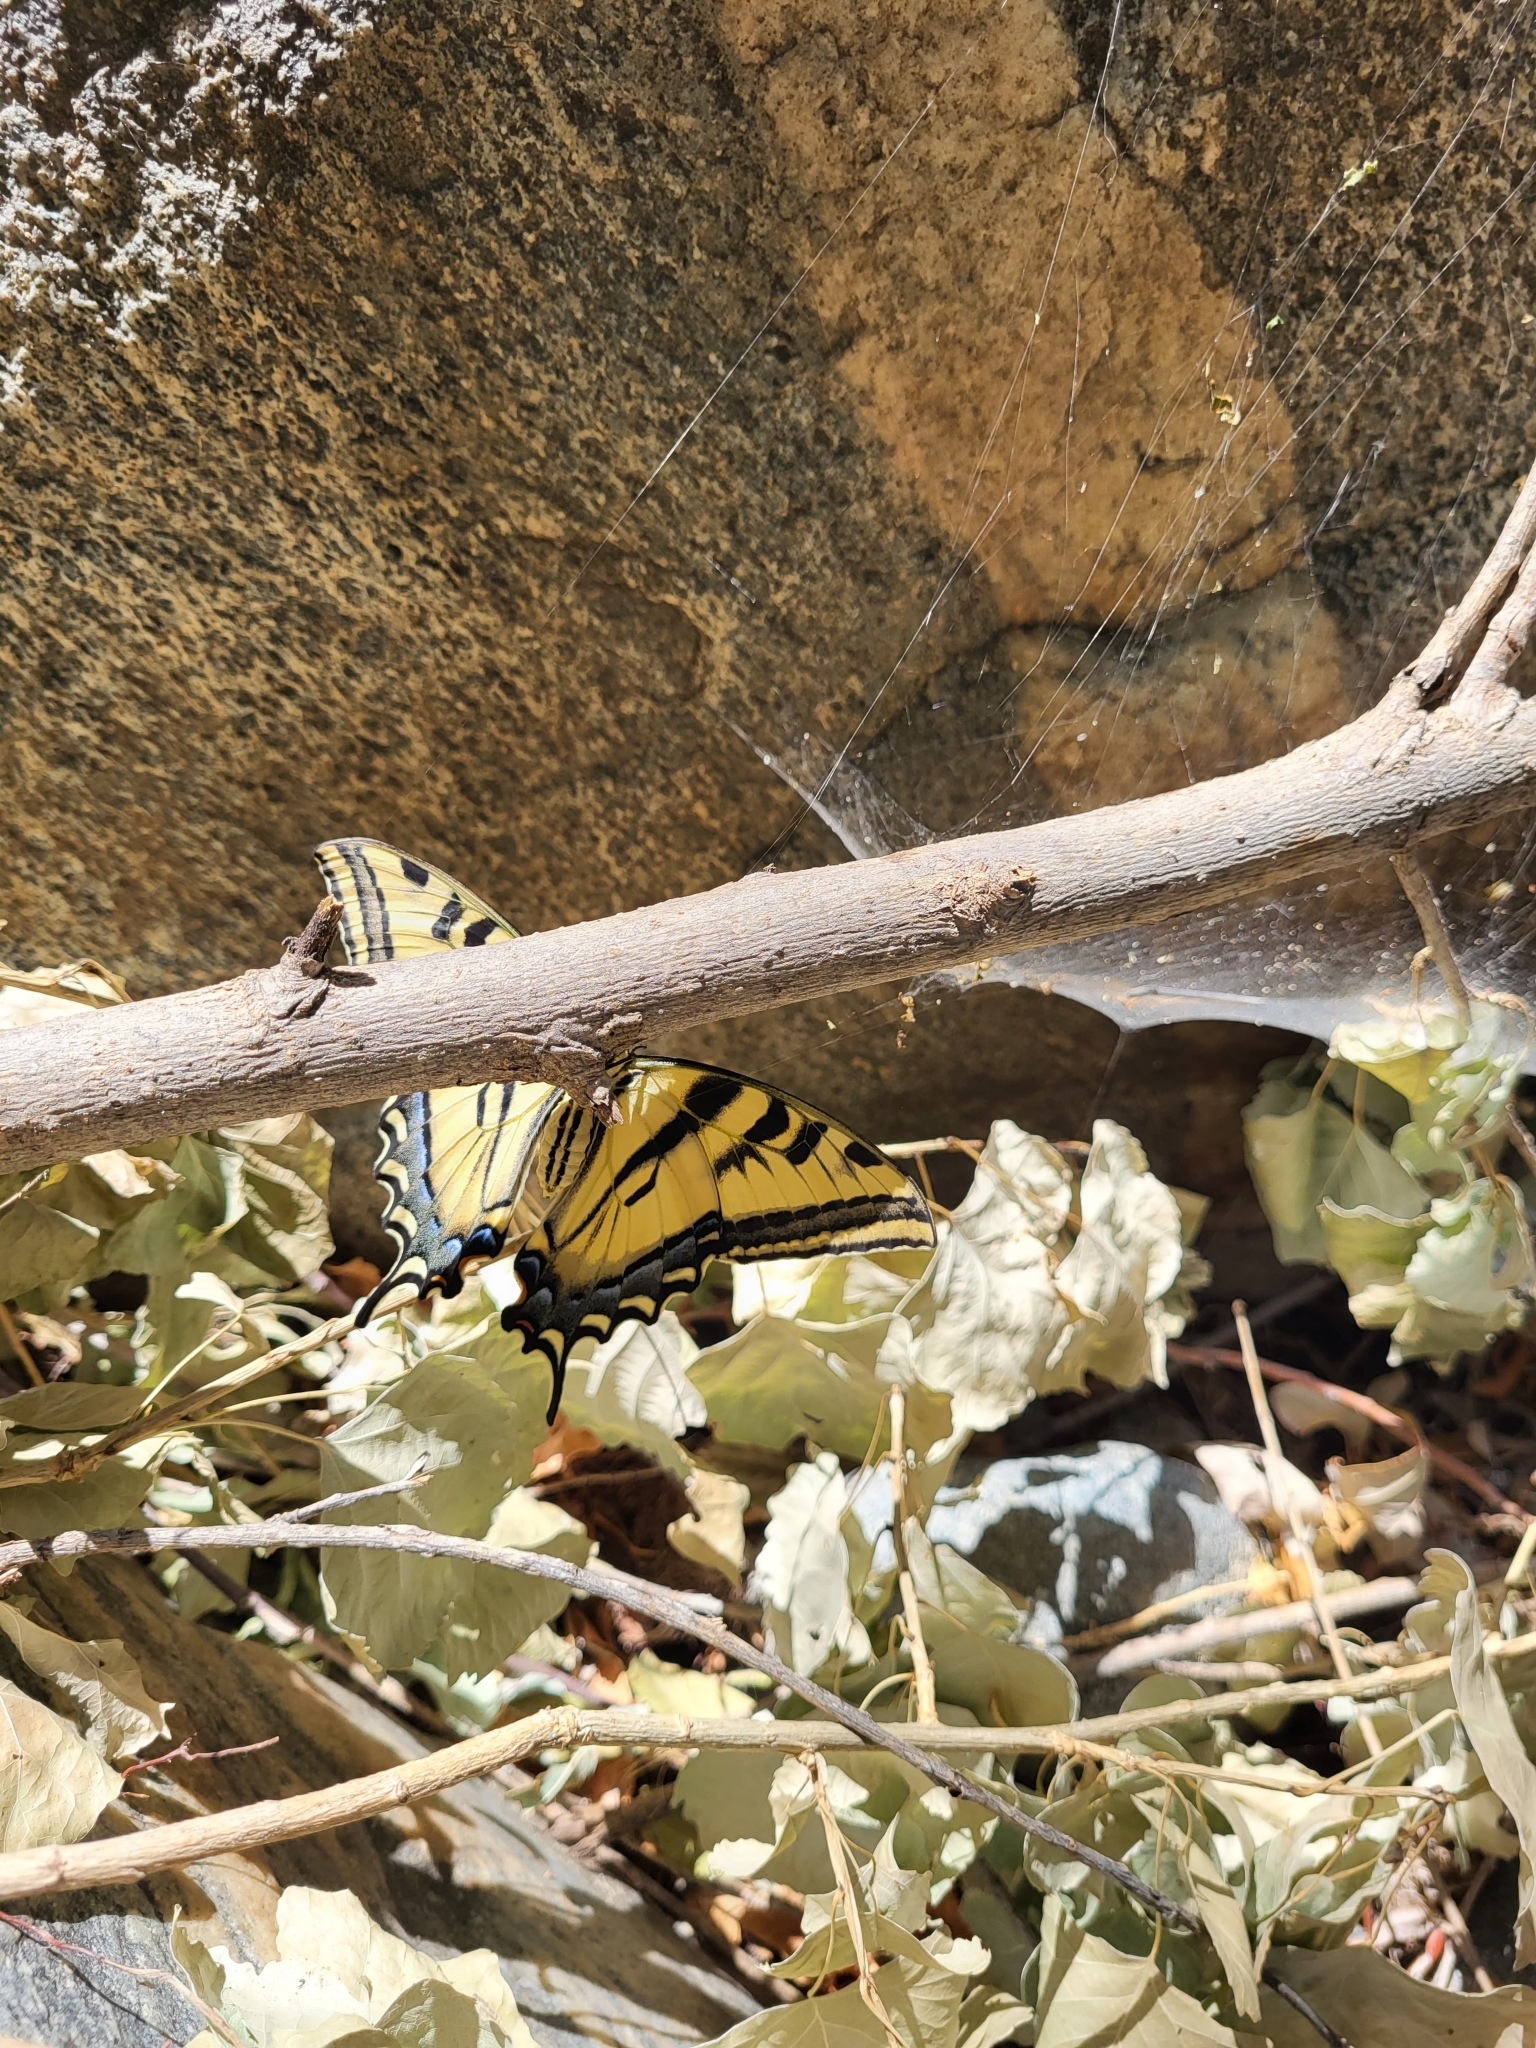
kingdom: Animalia
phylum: Arthropoda
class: Insecta
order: Lepidoptera
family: Papilionidae
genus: Papilio
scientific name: Papilio rutulus
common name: Western tiger swallowtail
